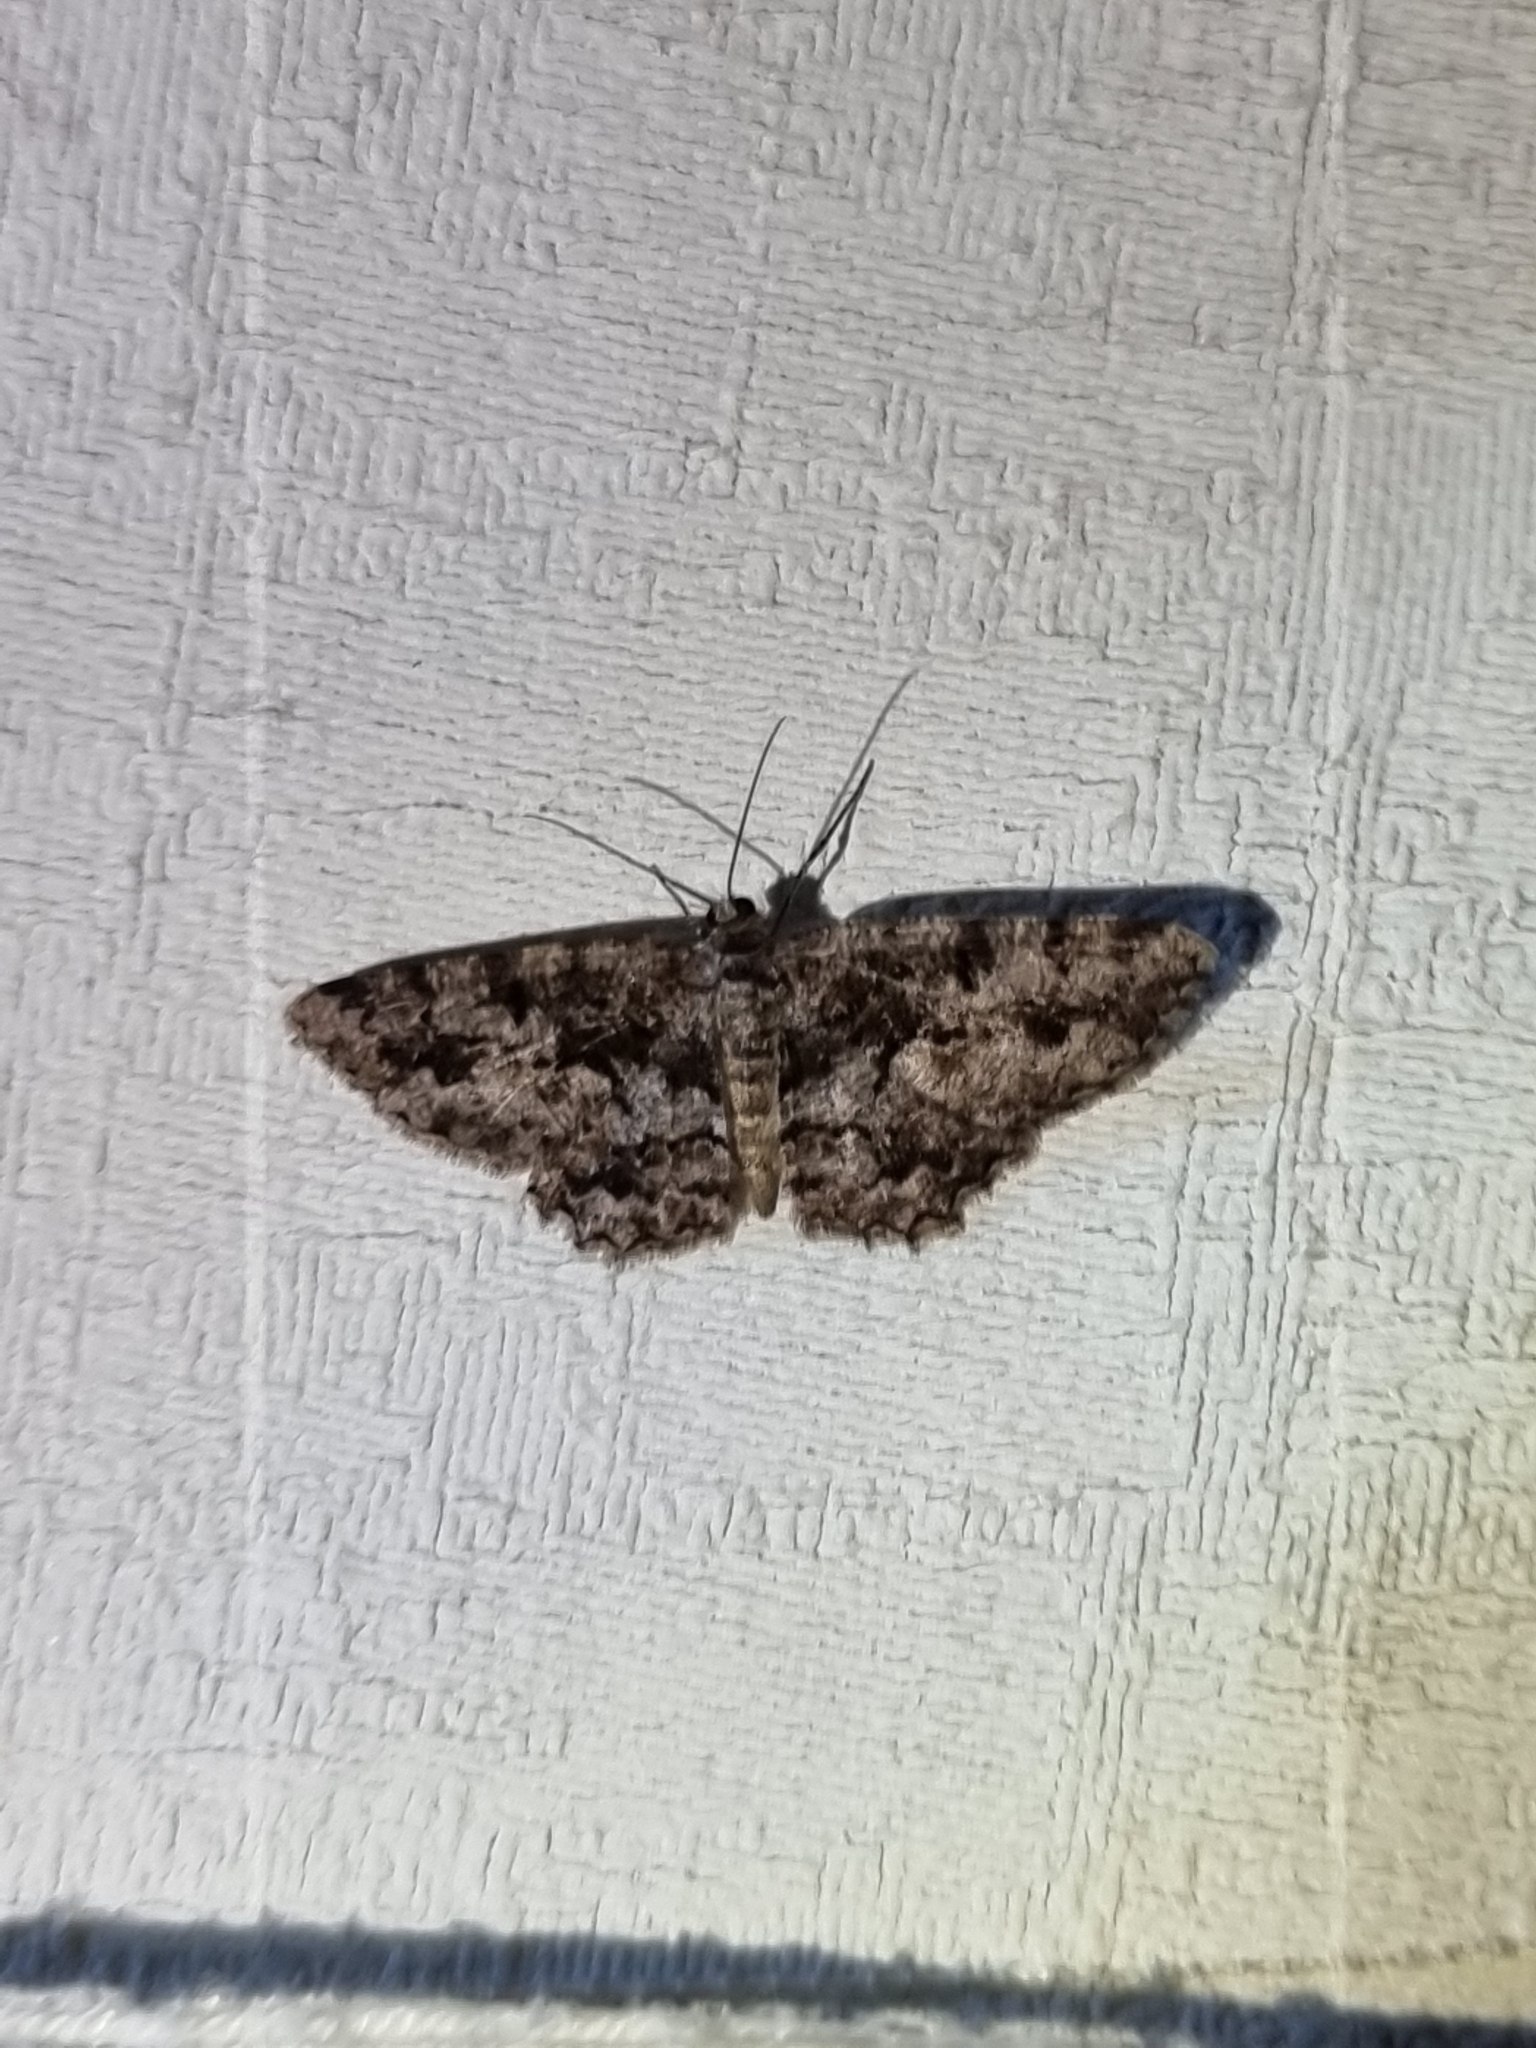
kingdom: Animalia
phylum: Arthropoda
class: Insecta
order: Lepidoptera
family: Geometridae
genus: Hypomecis
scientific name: Hypomecis externaria
